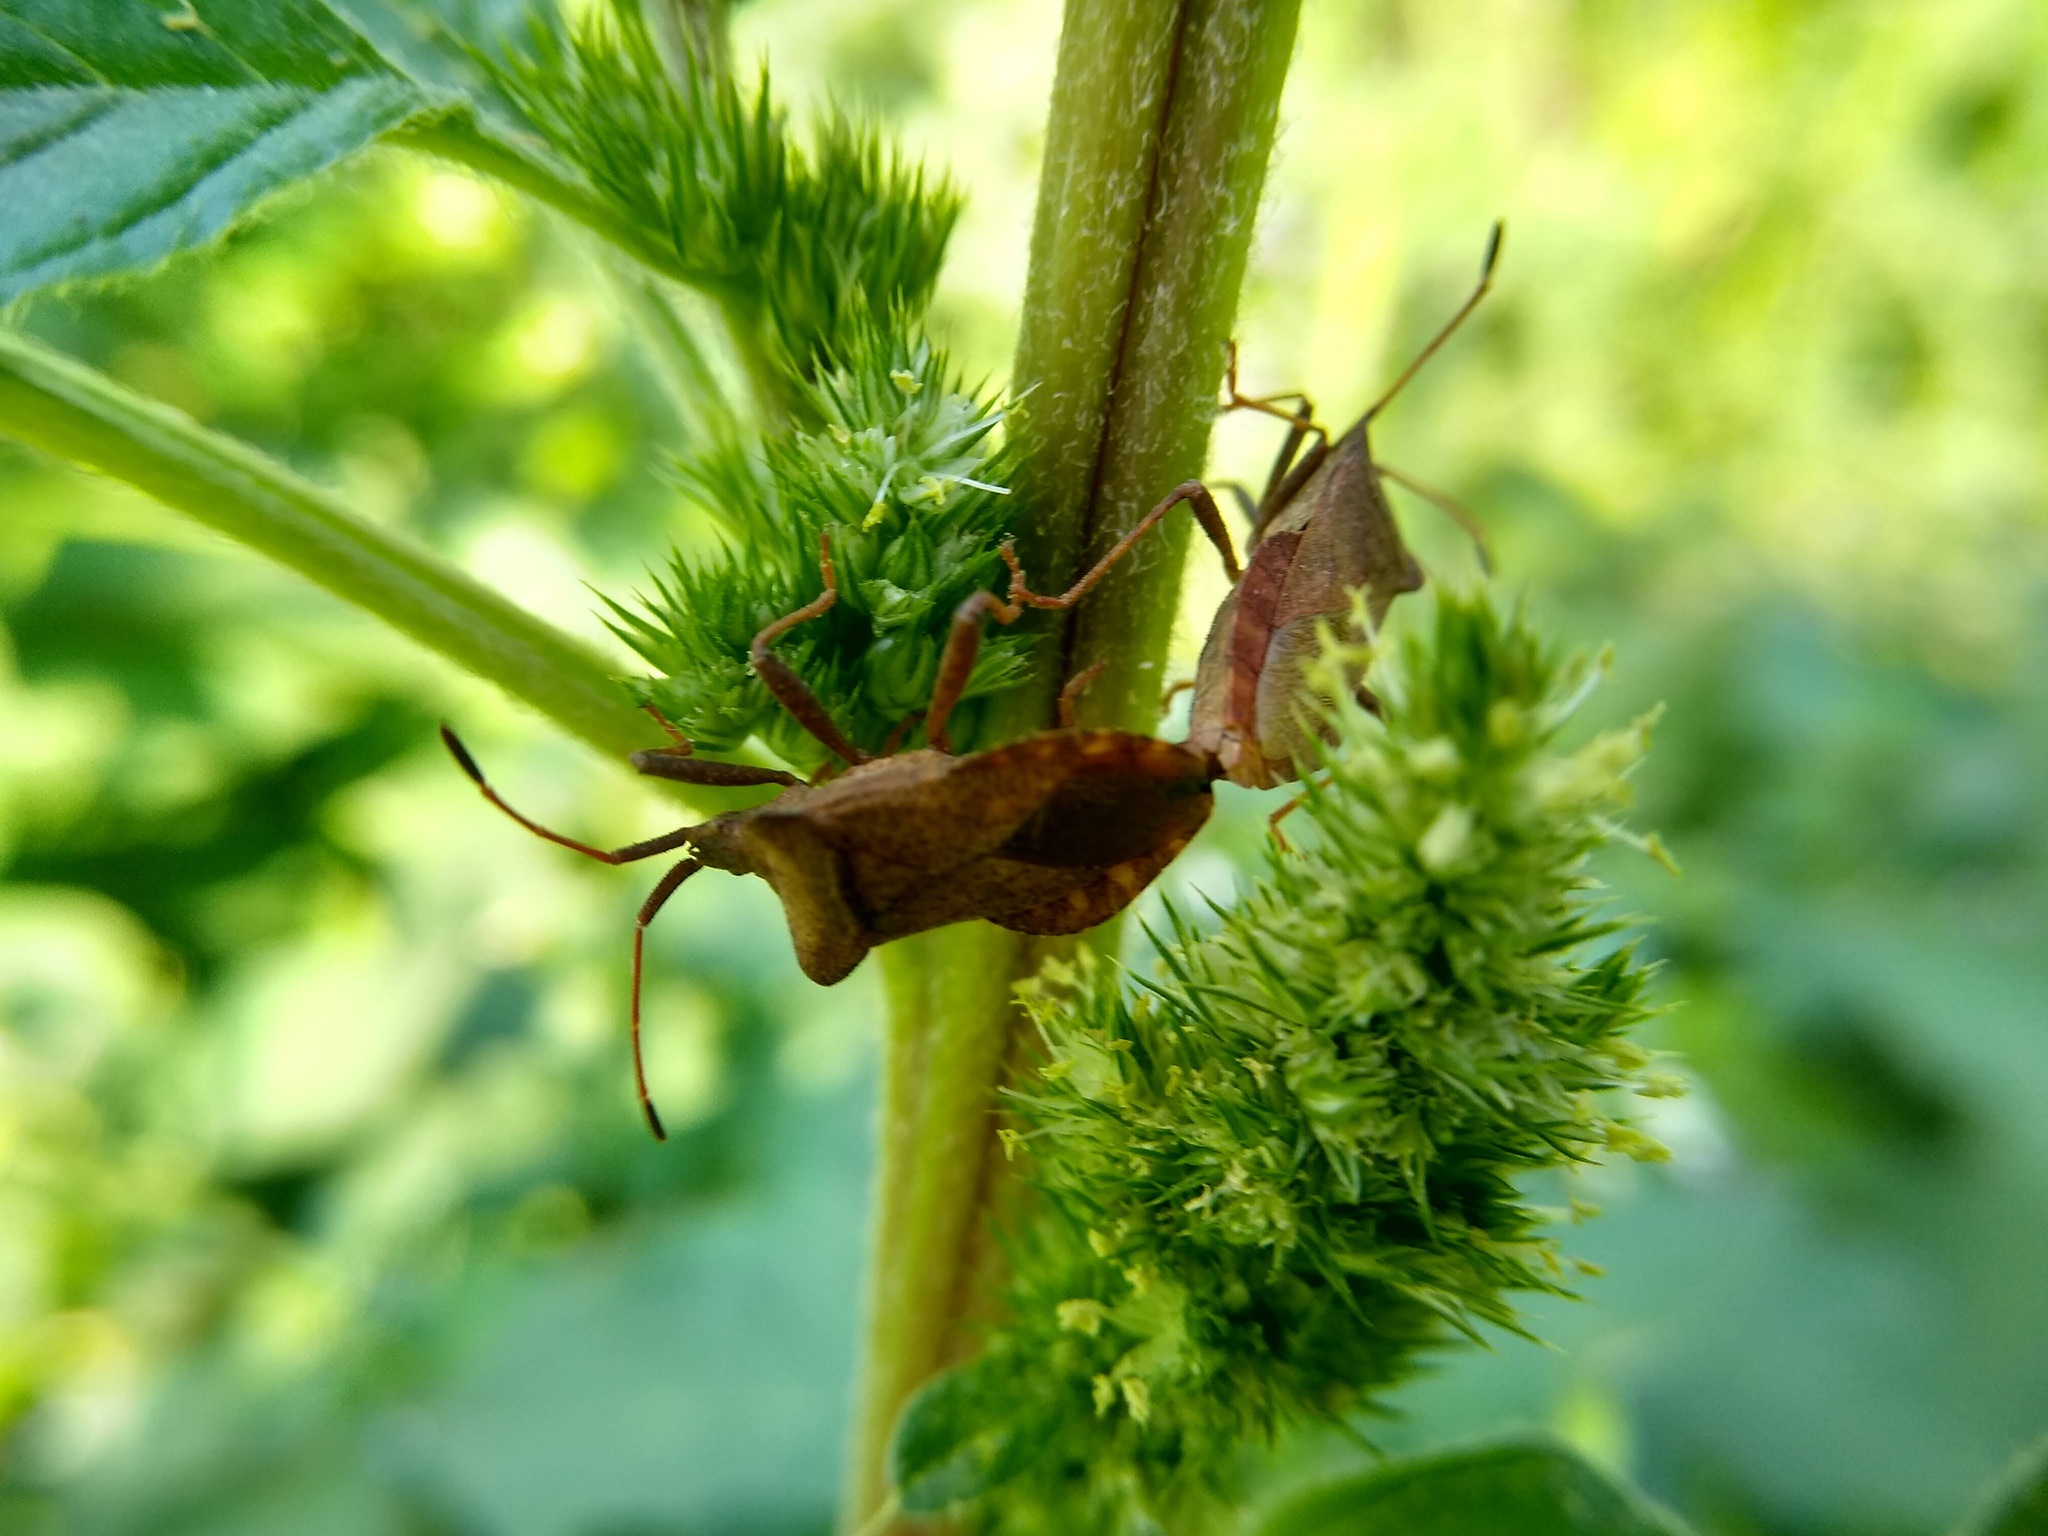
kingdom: Animalia
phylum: Arthropoda
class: Insecta
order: Hemiptera
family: Coreidae
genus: Coreus
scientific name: Coreus marginatus
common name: Dock bug
